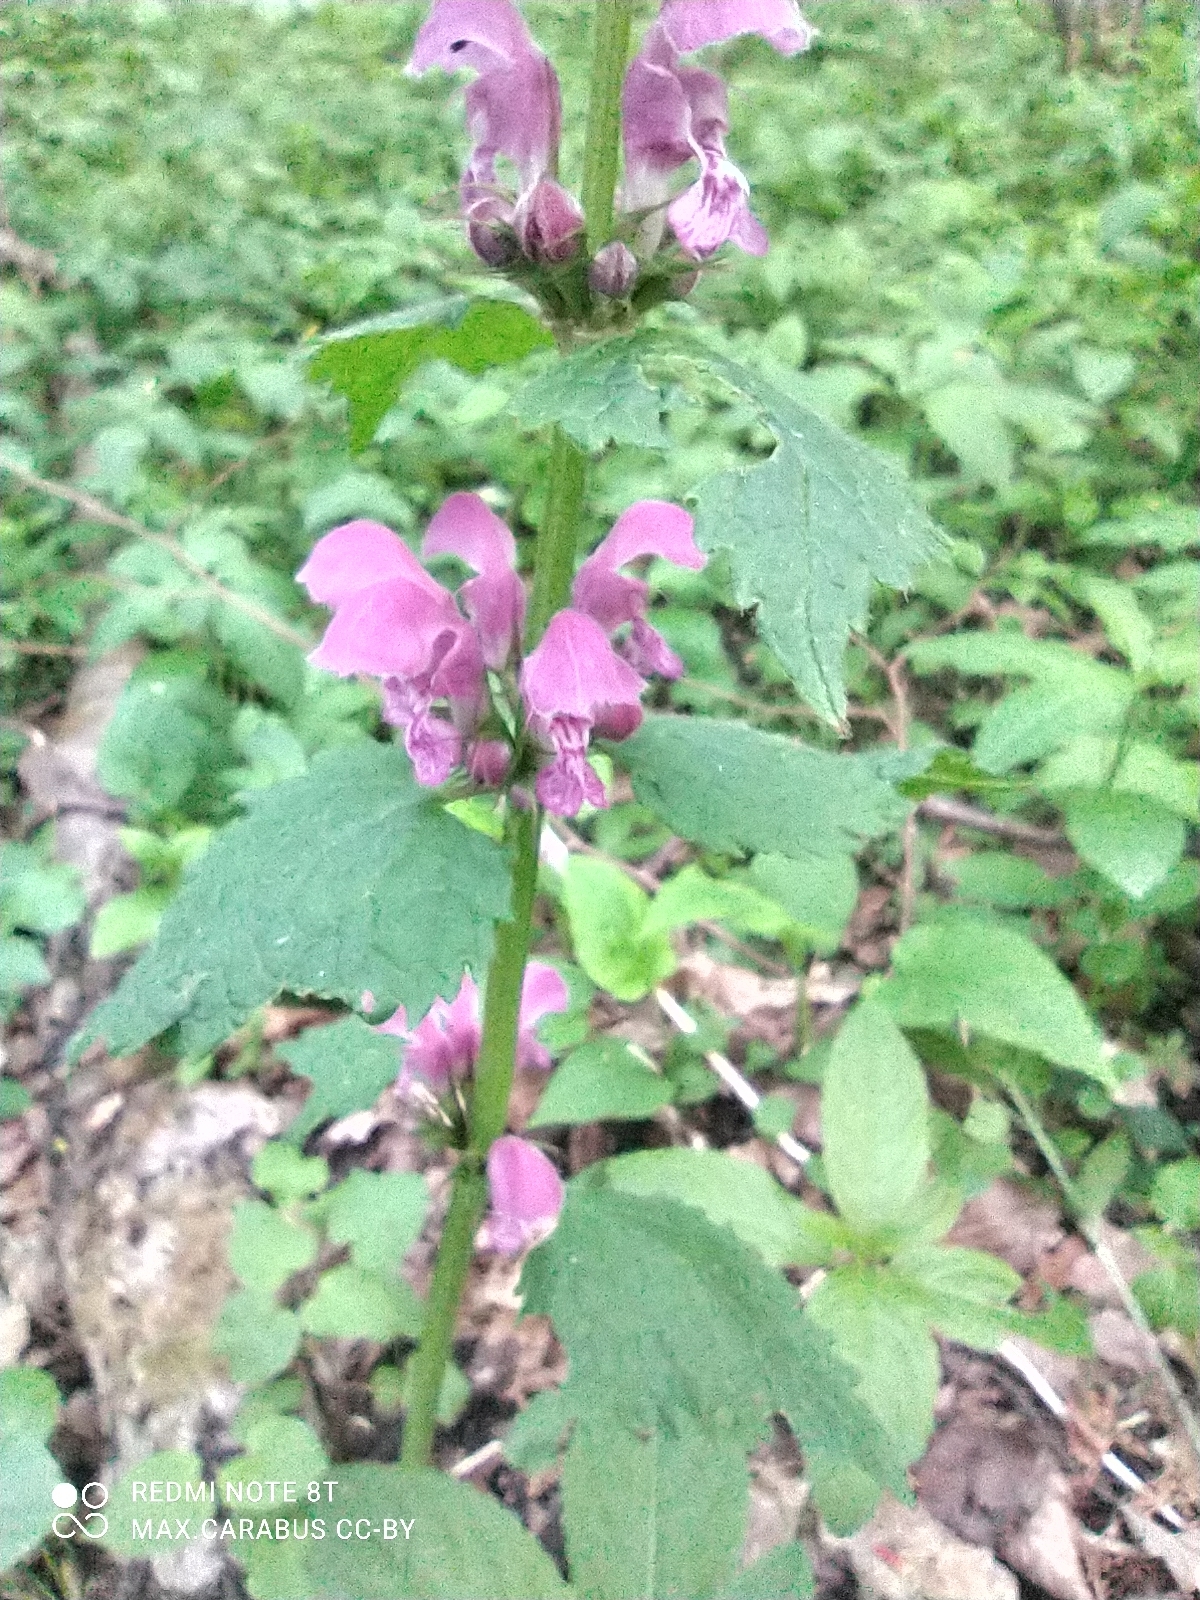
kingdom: Plantae
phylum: Tracheophyta
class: Magnoliopsida
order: Lamiales
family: Lamiaceae
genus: Lamium
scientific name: Lamium maculatum
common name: Spotted dead-nettle
